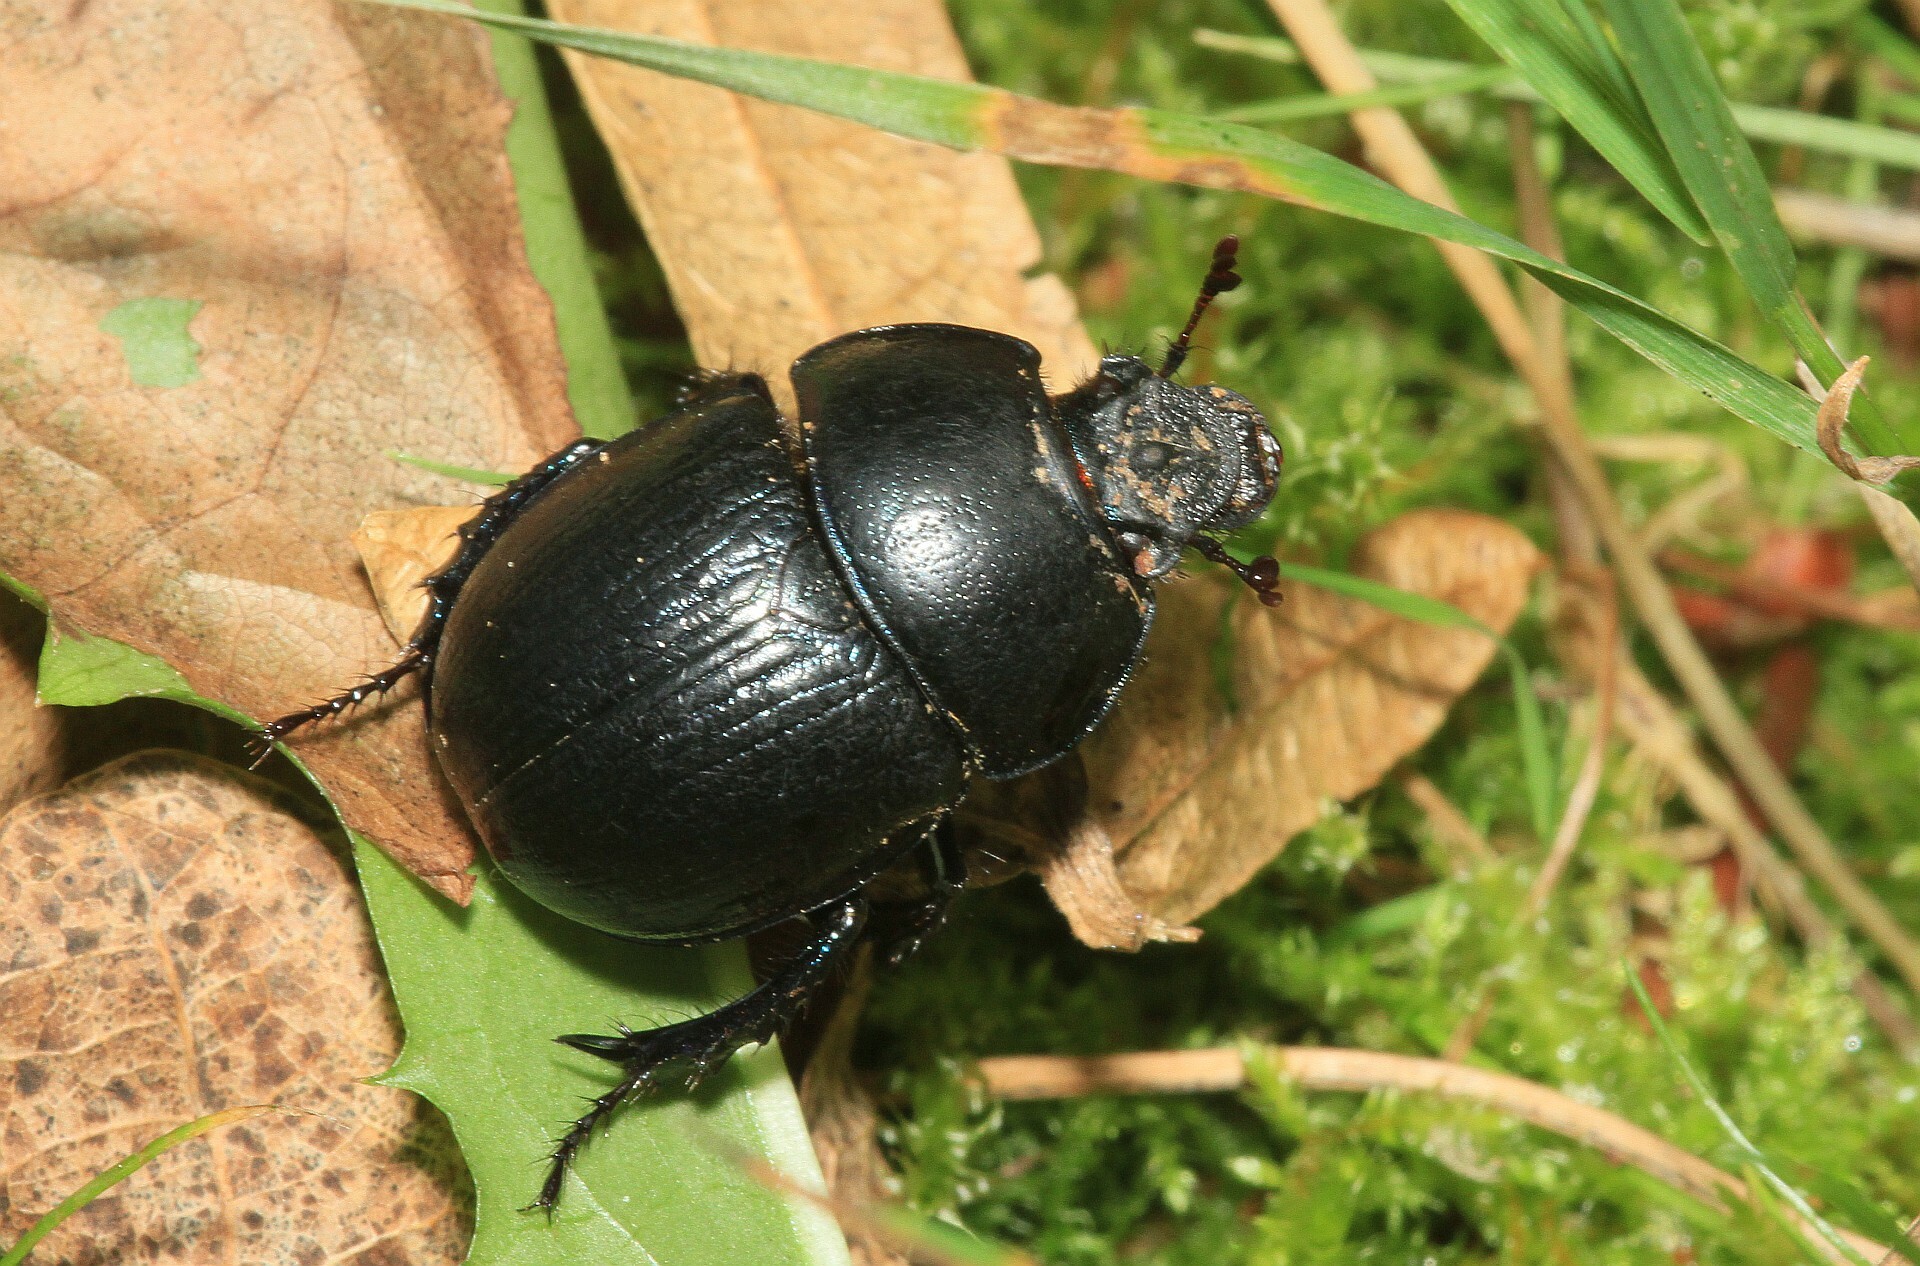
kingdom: Animalia
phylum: Arthropoda
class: Insecta
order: Coleoptera
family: Geotrupidae
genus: Anoplotrupes
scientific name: Anoplotrupes stercorosus
